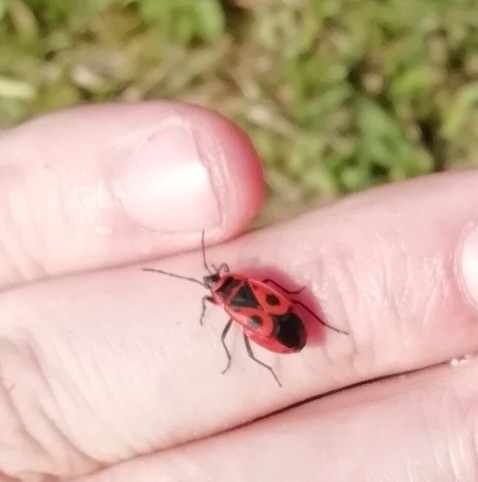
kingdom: Animalia
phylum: Arthropoda
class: Insecta
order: Hemiptera
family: Pyrrhocoridae
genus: Pyrrhocoris
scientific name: Pyrrhocoris apterus
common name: Firebug
